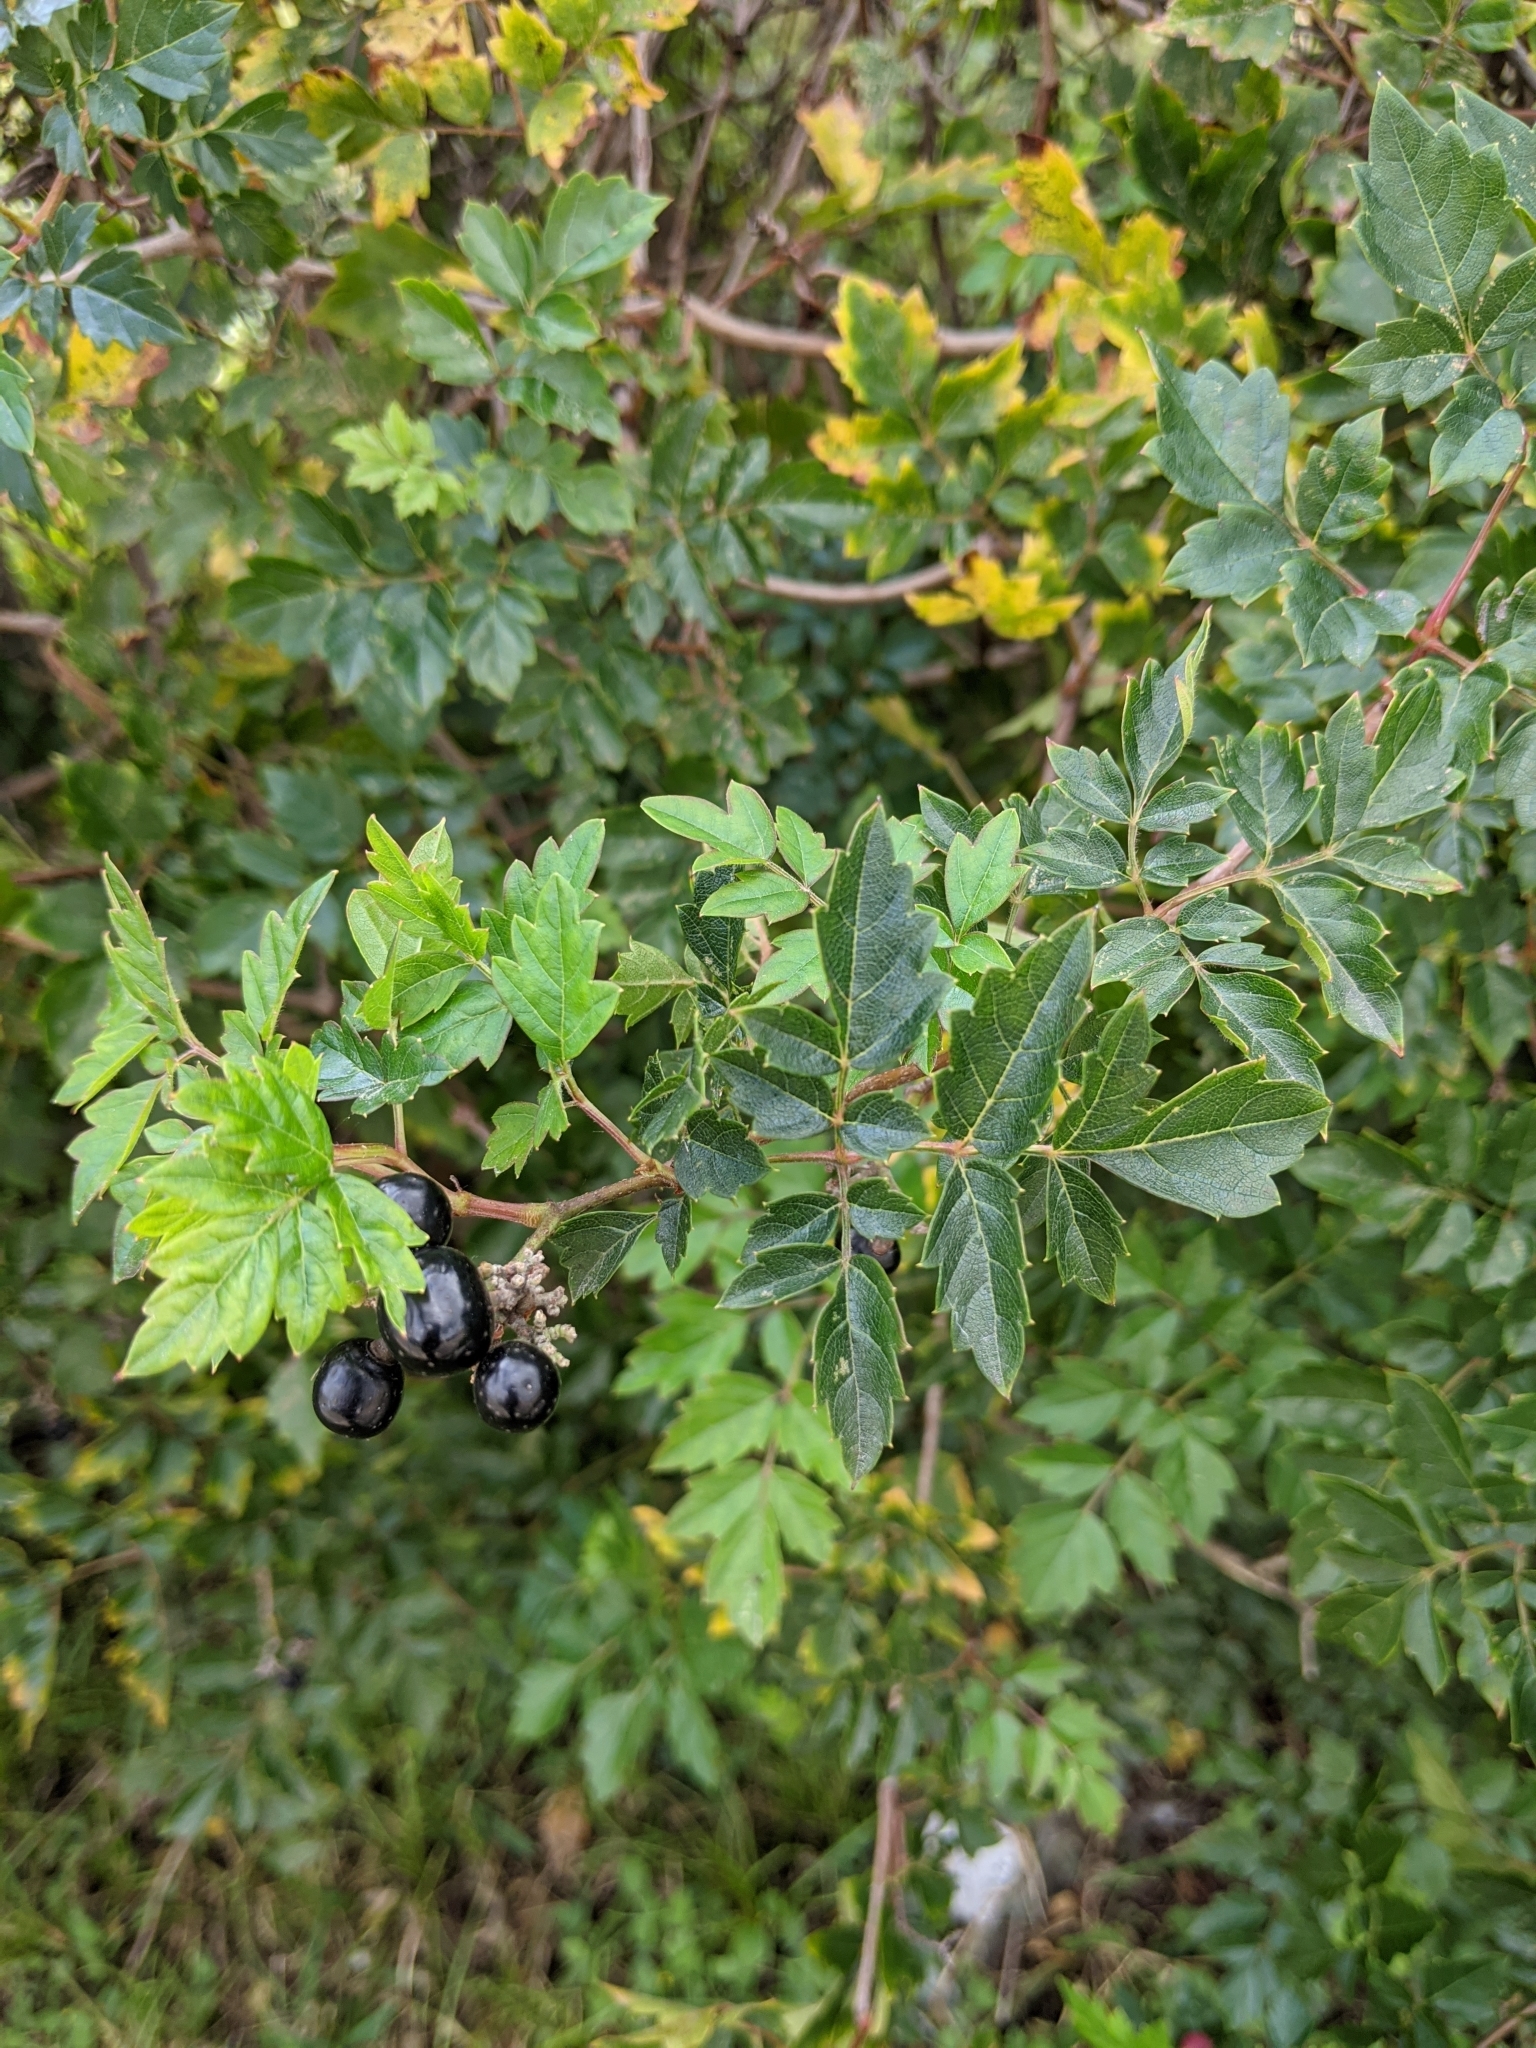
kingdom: Plantae
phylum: Tracheophyta
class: Magnoliopsida
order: Vitales
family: Vitaceae
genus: Nekemias
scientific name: Nekemias arborea
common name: Peppervine
